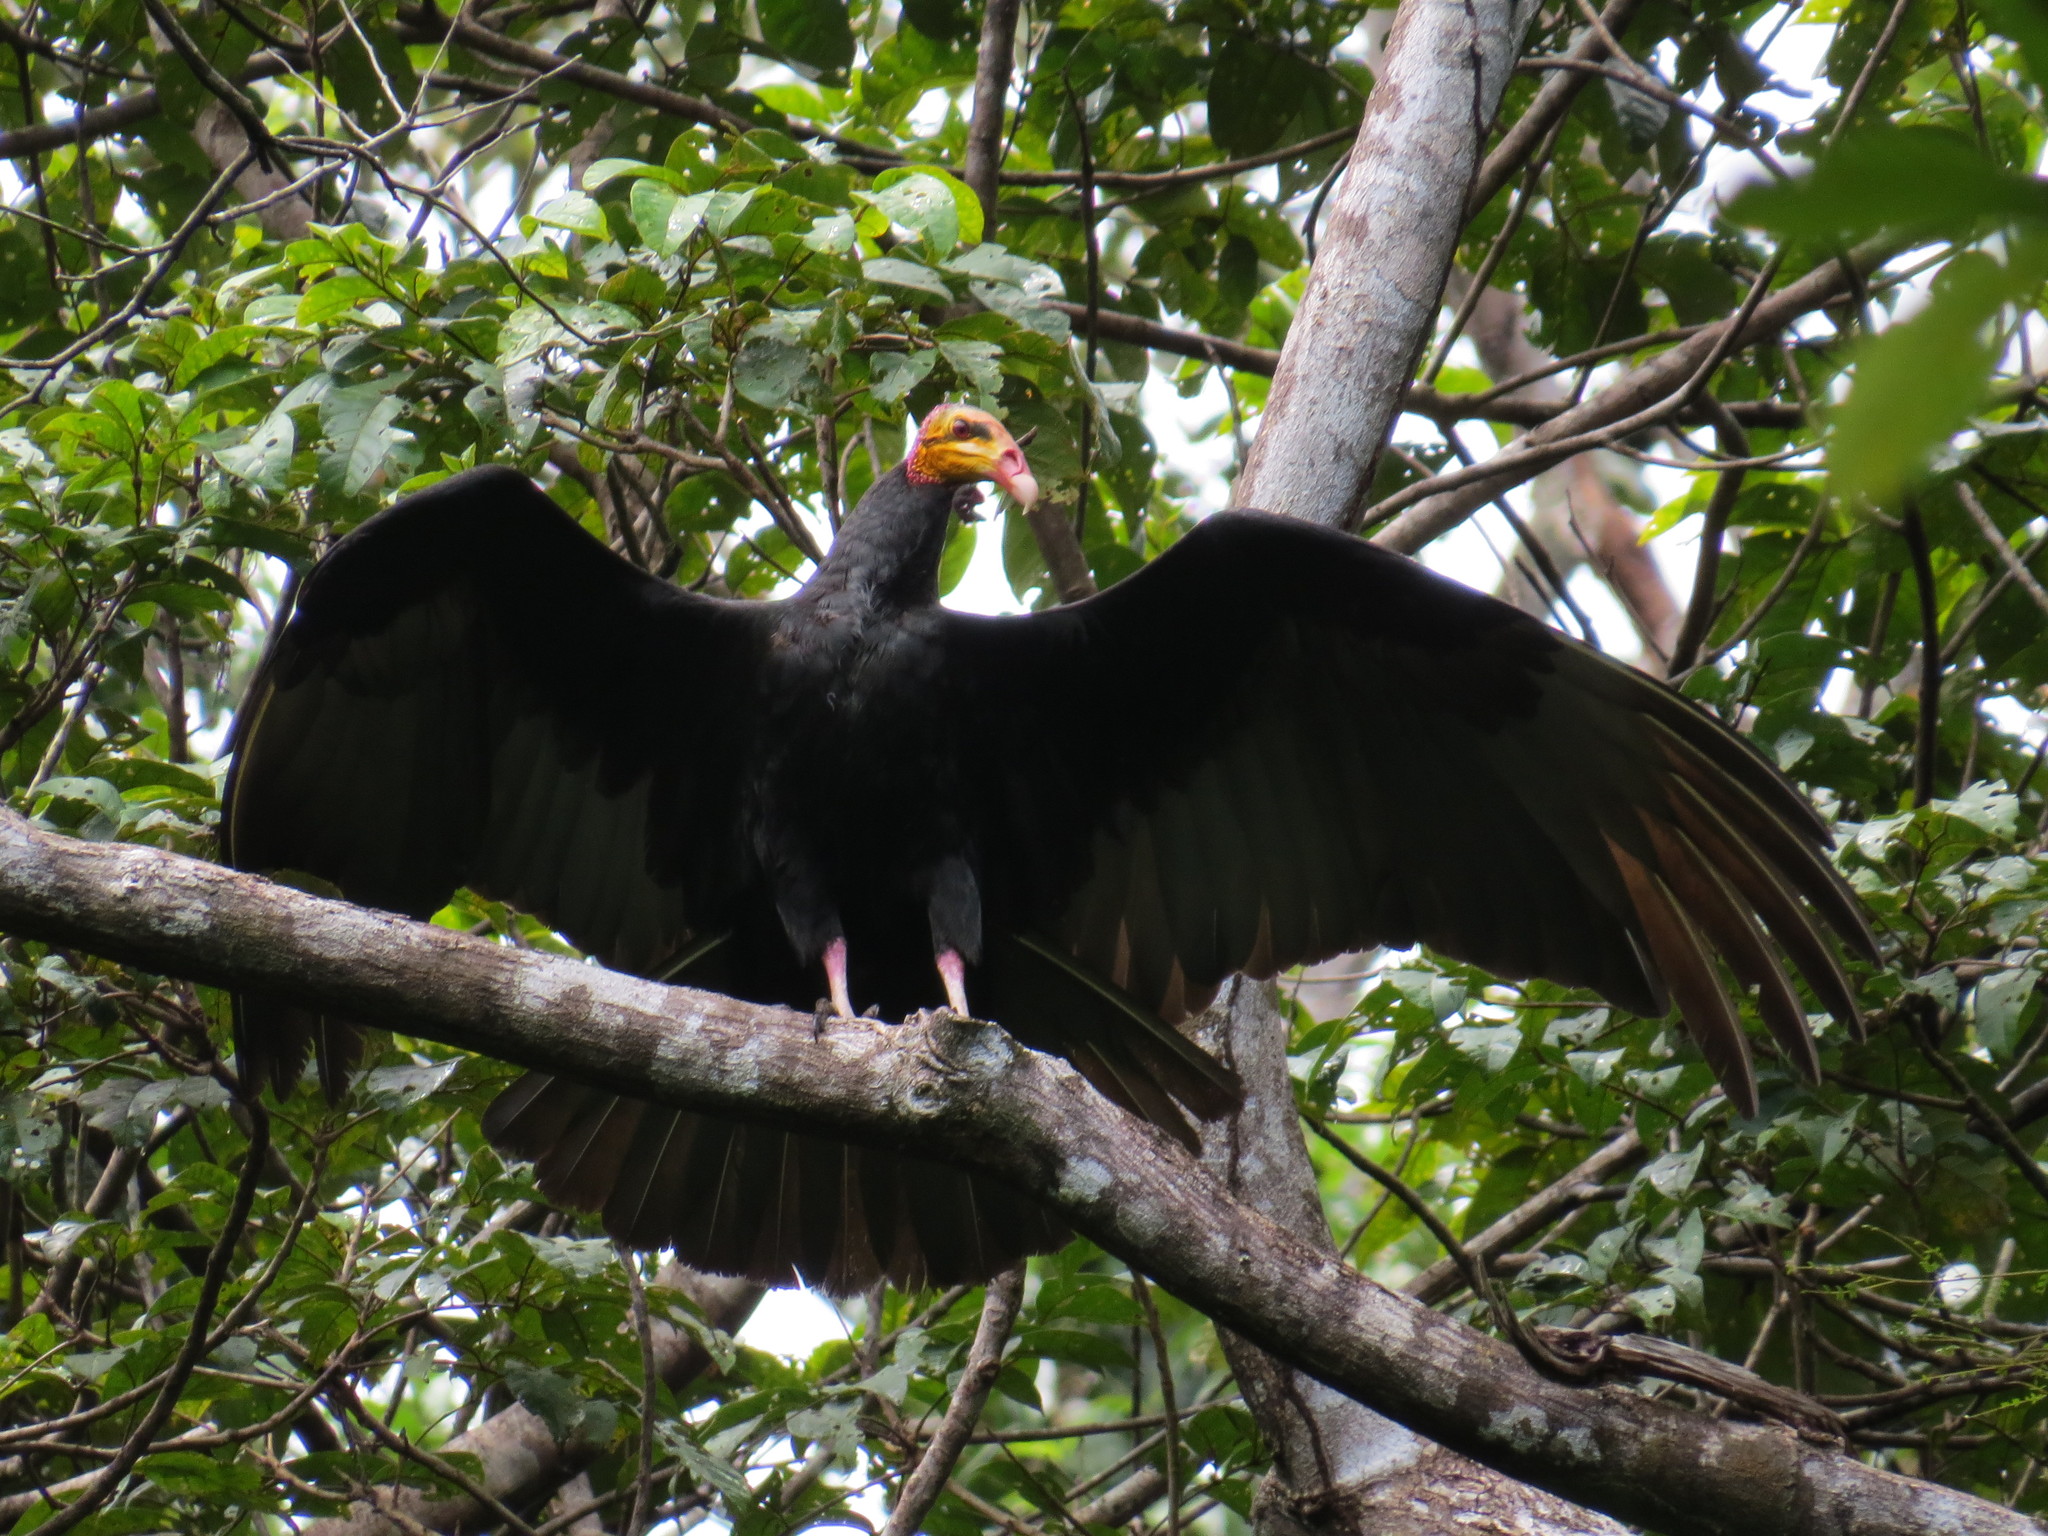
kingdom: Animalia
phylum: Chordata
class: Aves
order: Accipitriformes
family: Cathartidae
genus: Cathartes
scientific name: Cathartes melambrotus
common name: Greater yellow-headed vulture
